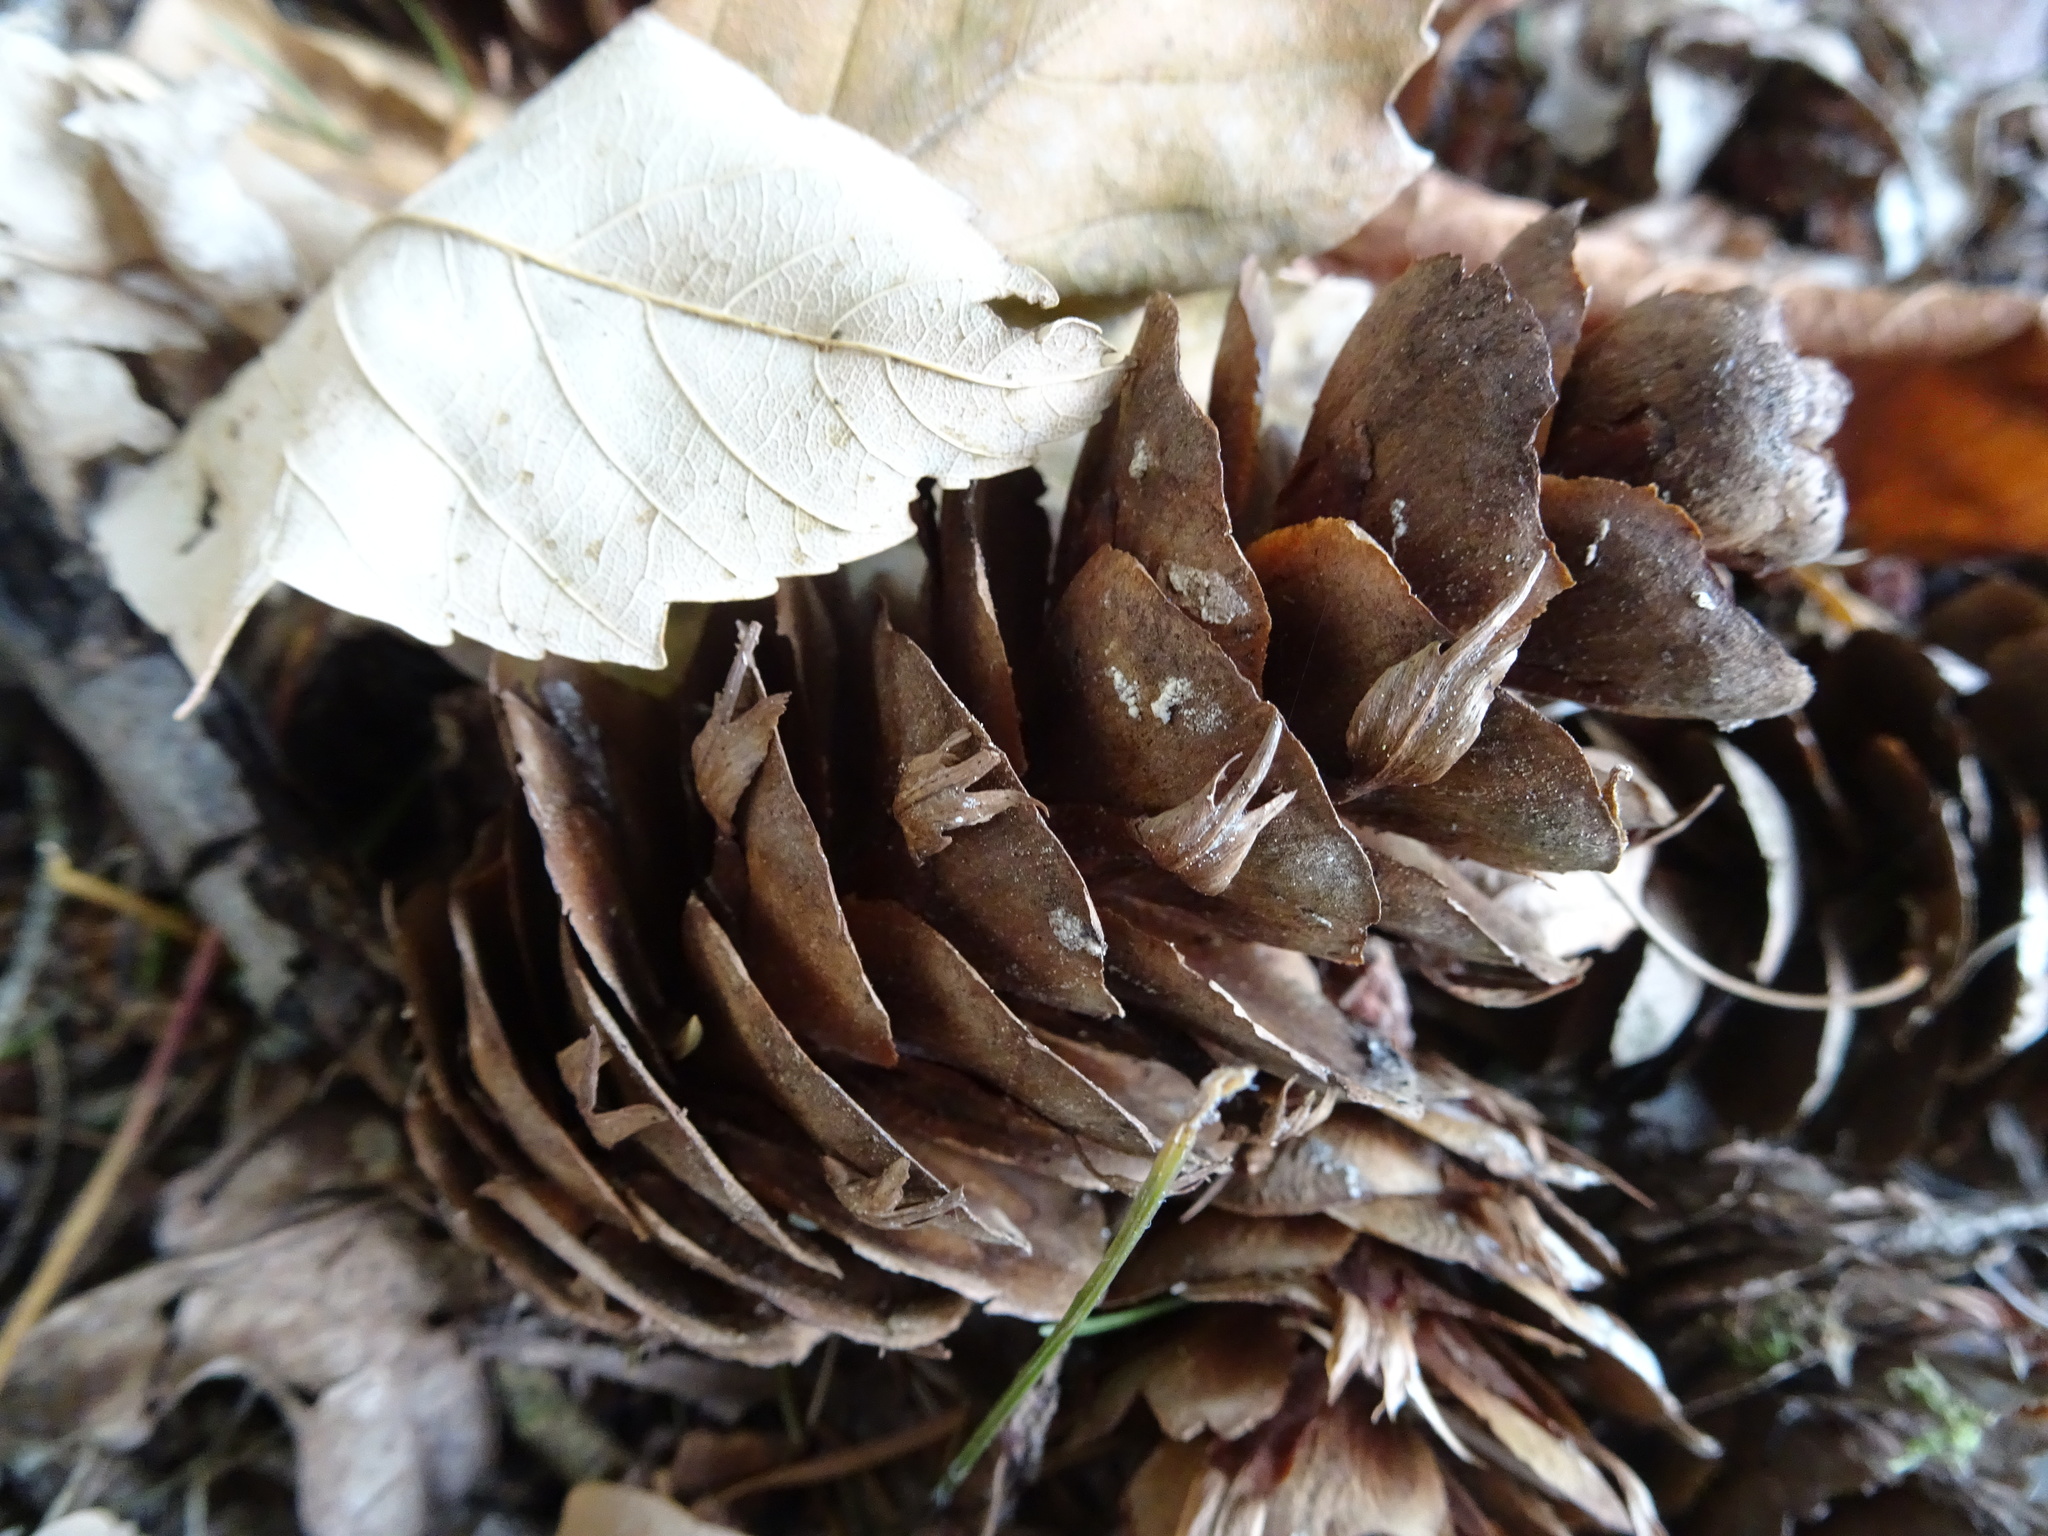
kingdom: Plantae
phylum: Tracheophyta
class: Pinopsida
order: Pinales
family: Pinaceae
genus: Pseudotsuga
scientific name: Pseudotsuga menziesii
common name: Douglas fir
